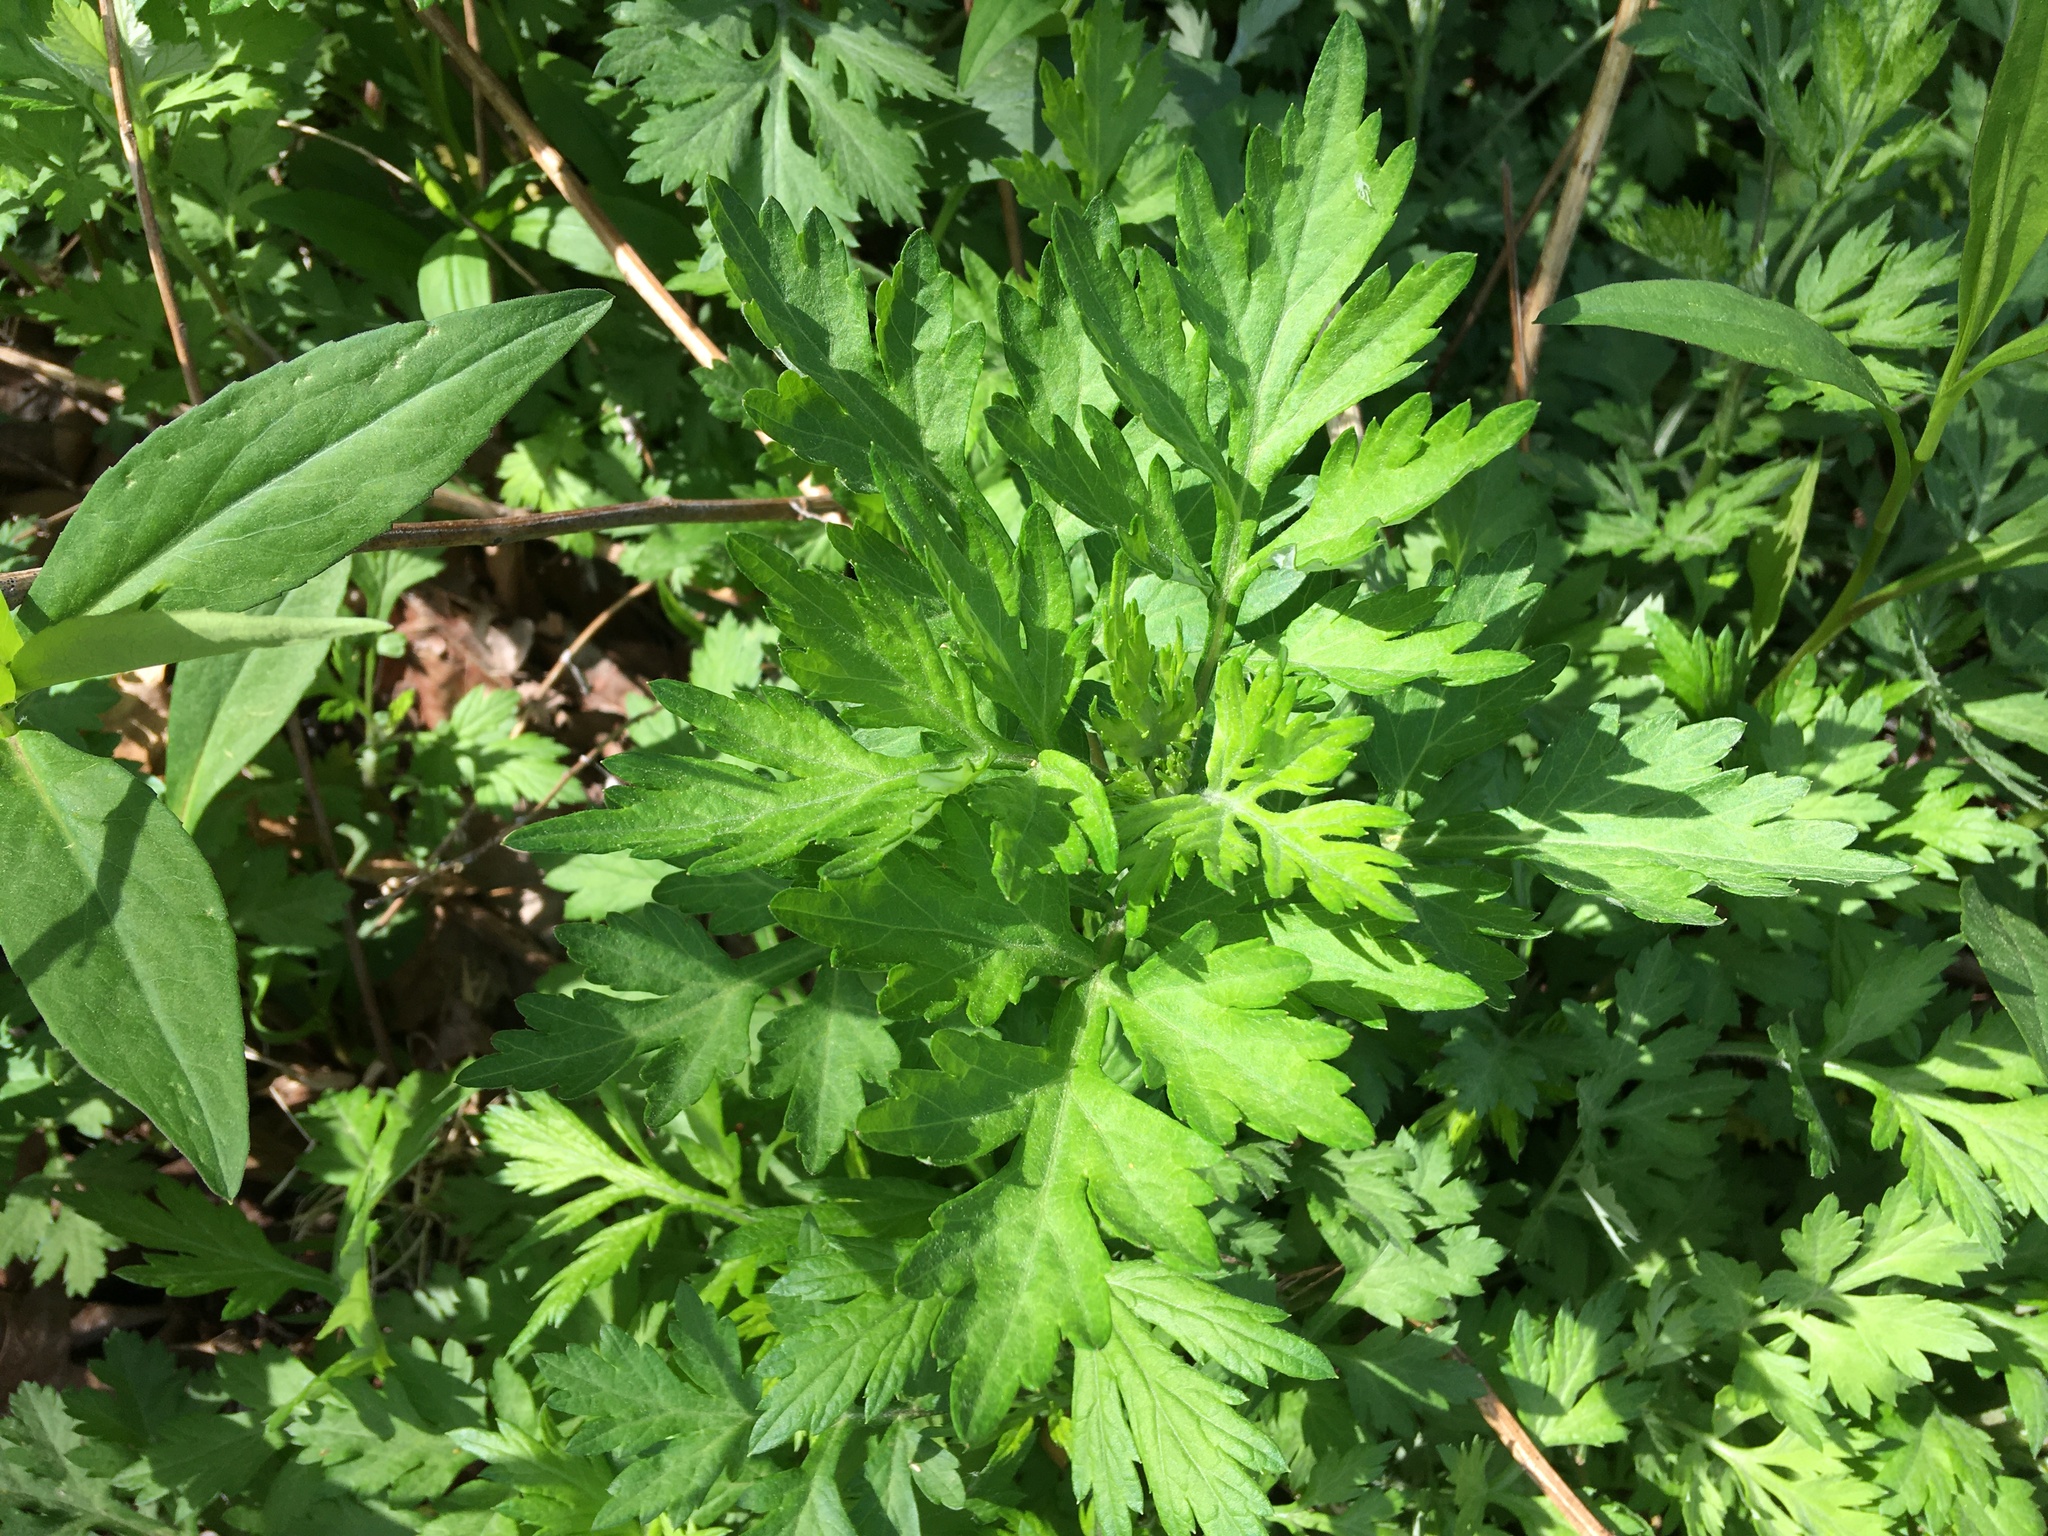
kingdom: Plantae
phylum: Tracheophyta
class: Magnoliopsida
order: Asterales
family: Asteraceae
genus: Artemisia
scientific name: Artemisia vulgaris
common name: Mugwort
